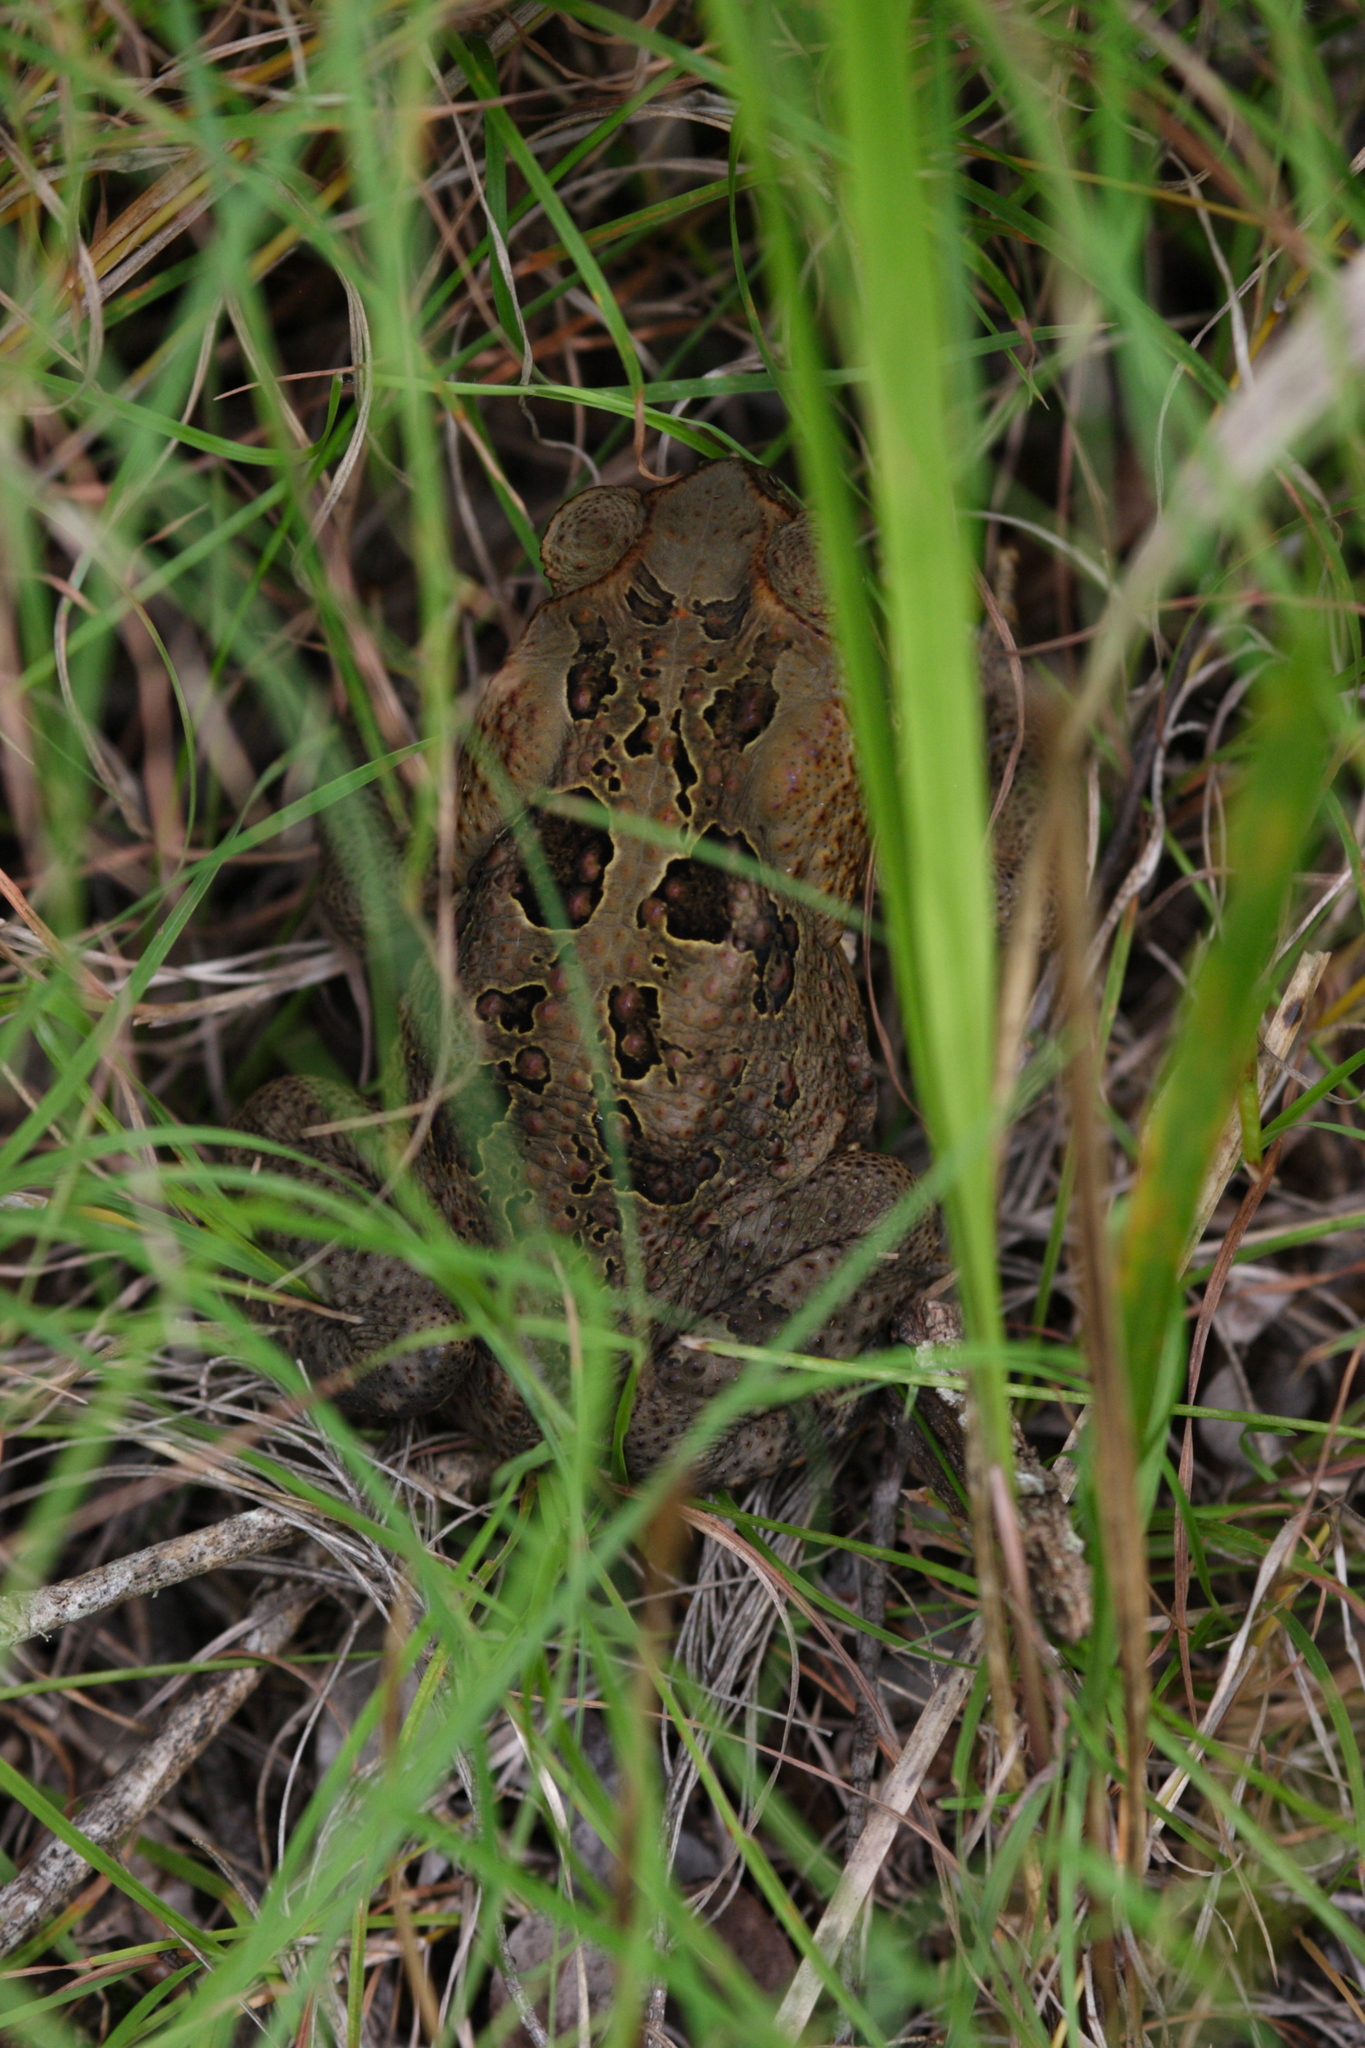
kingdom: Animalia
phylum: Chordata
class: Amphibia
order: Anura
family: Bufonidae
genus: Rhinella
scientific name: Rhinella marina
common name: Cane toad
